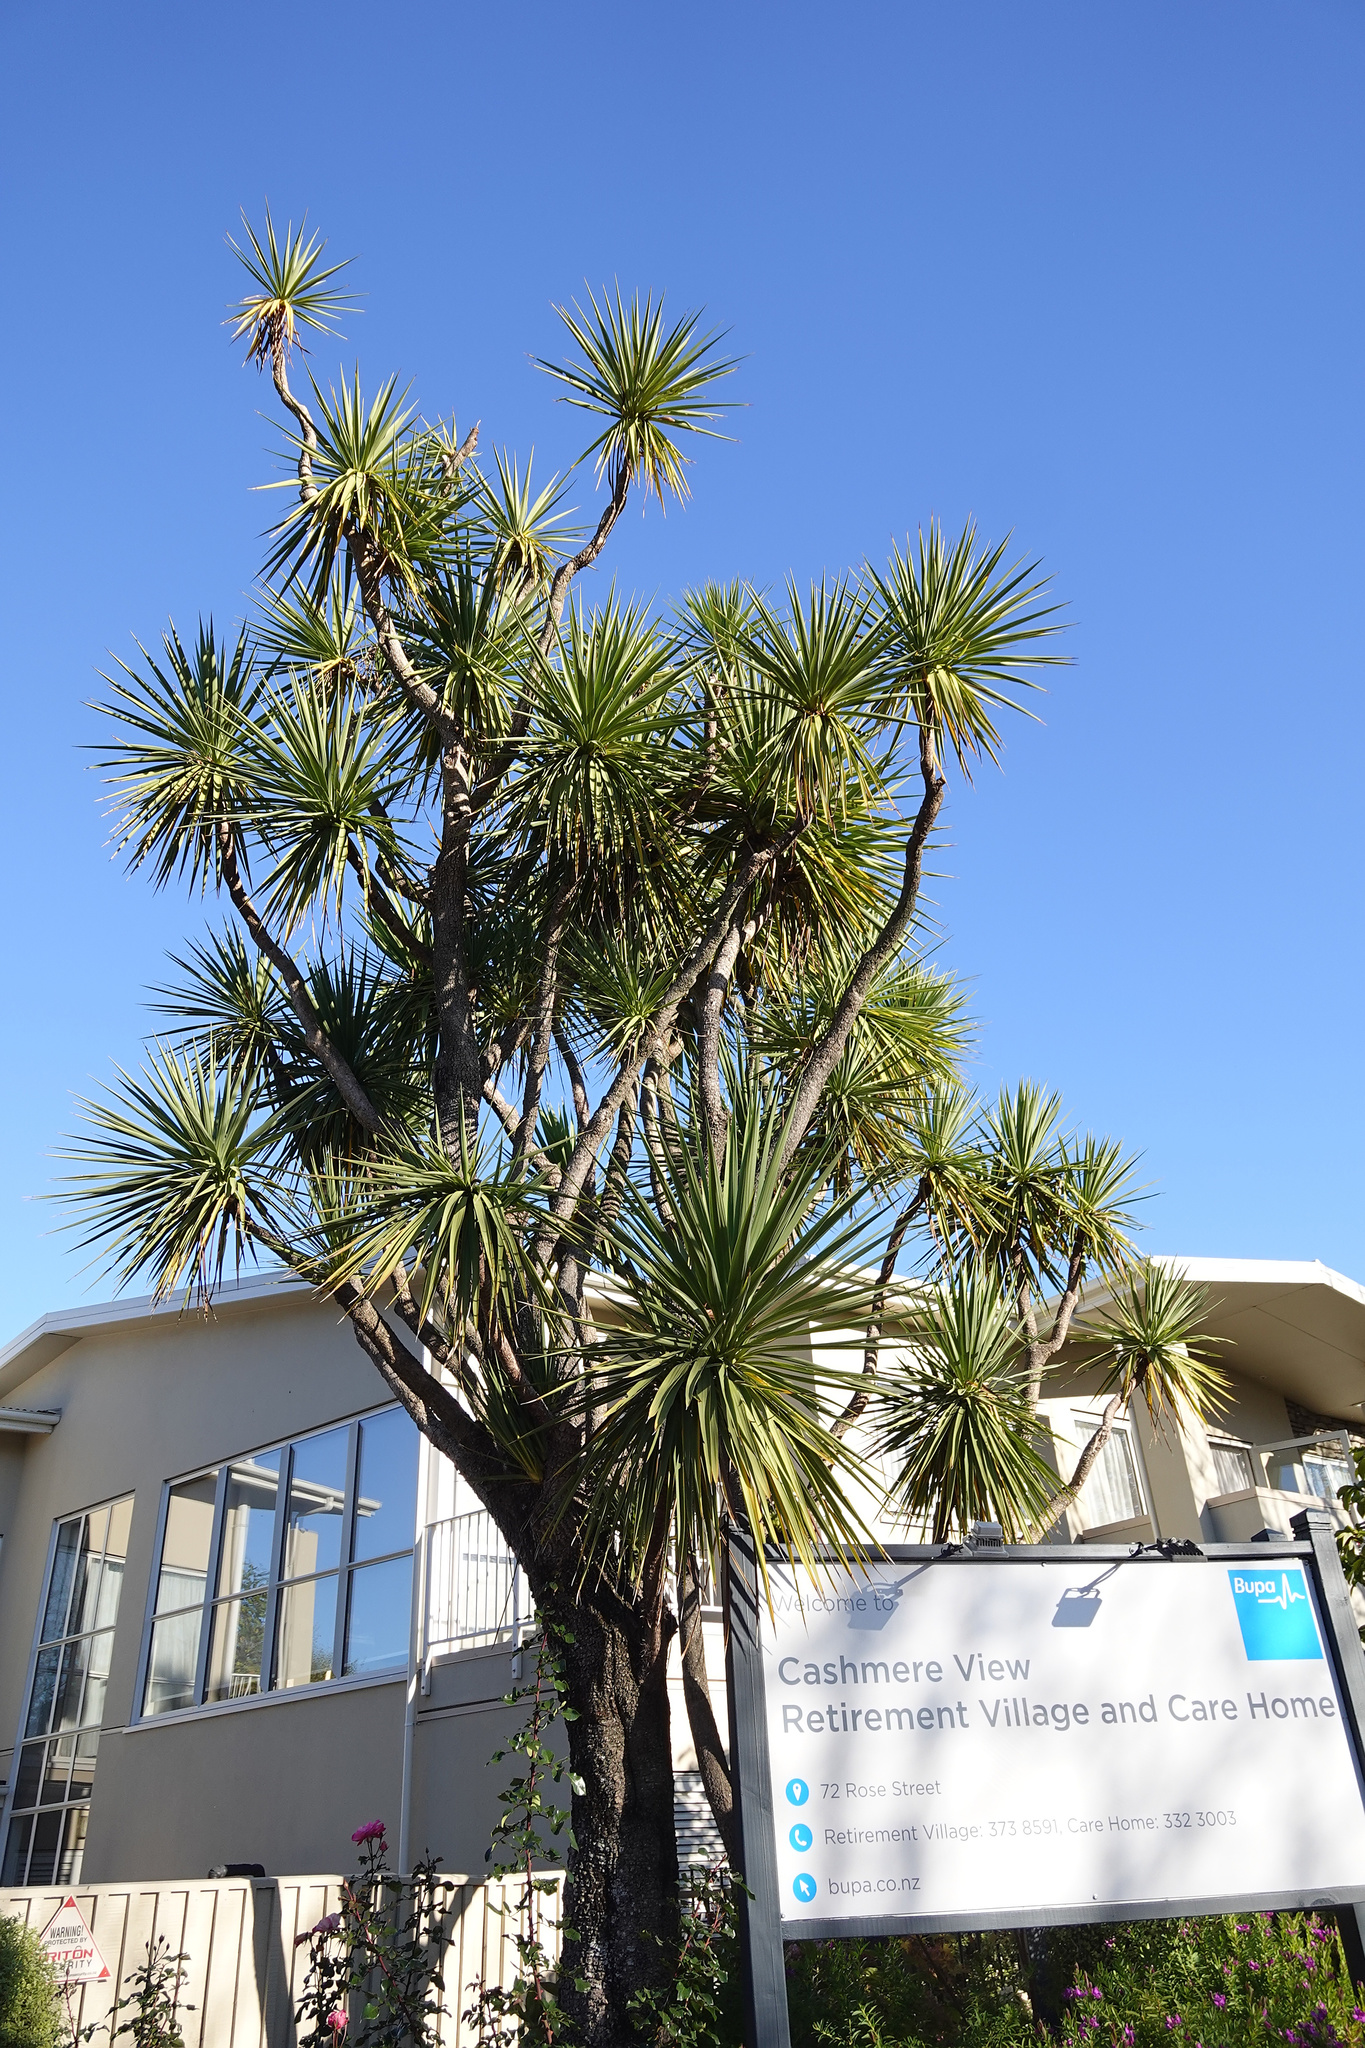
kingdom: Plantae
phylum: Tracheophyta
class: Liliopsida
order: Asparagales
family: Asparagaceae
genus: Cordyline
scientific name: Cordyline australis
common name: Cabbage-palm
